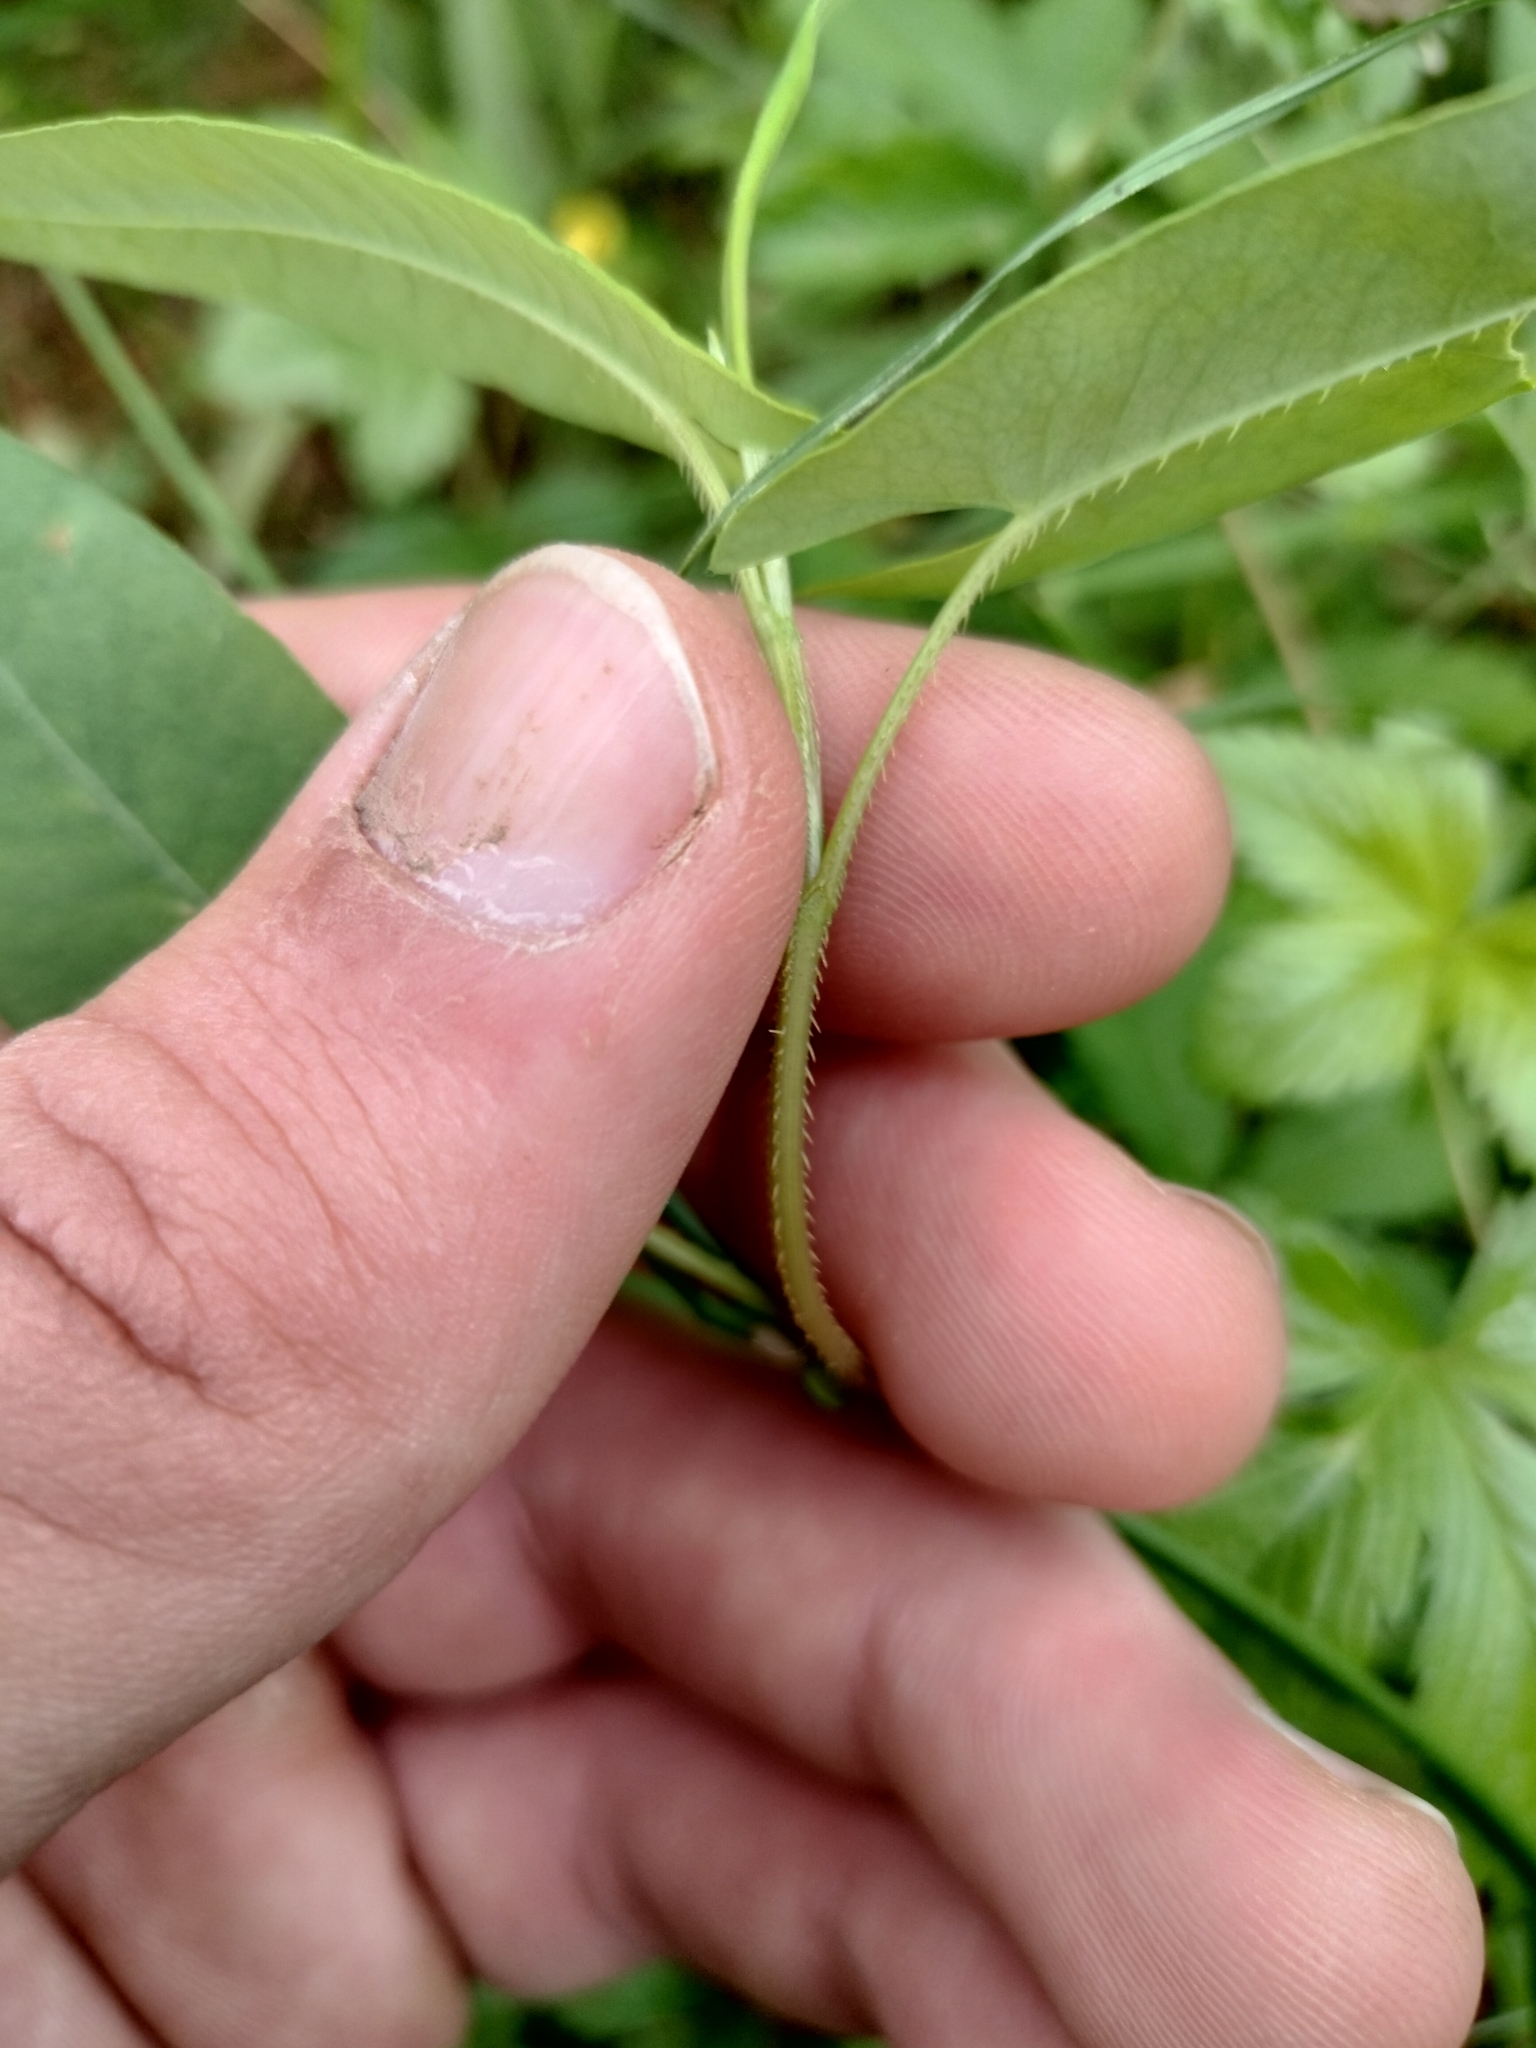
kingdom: Plantae
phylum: Tracheophyta
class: Magnoliopsida
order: Caryophyllales
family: Polygonaceae
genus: Persicaria
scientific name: Persicaria sagittata
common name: American tearthumb
